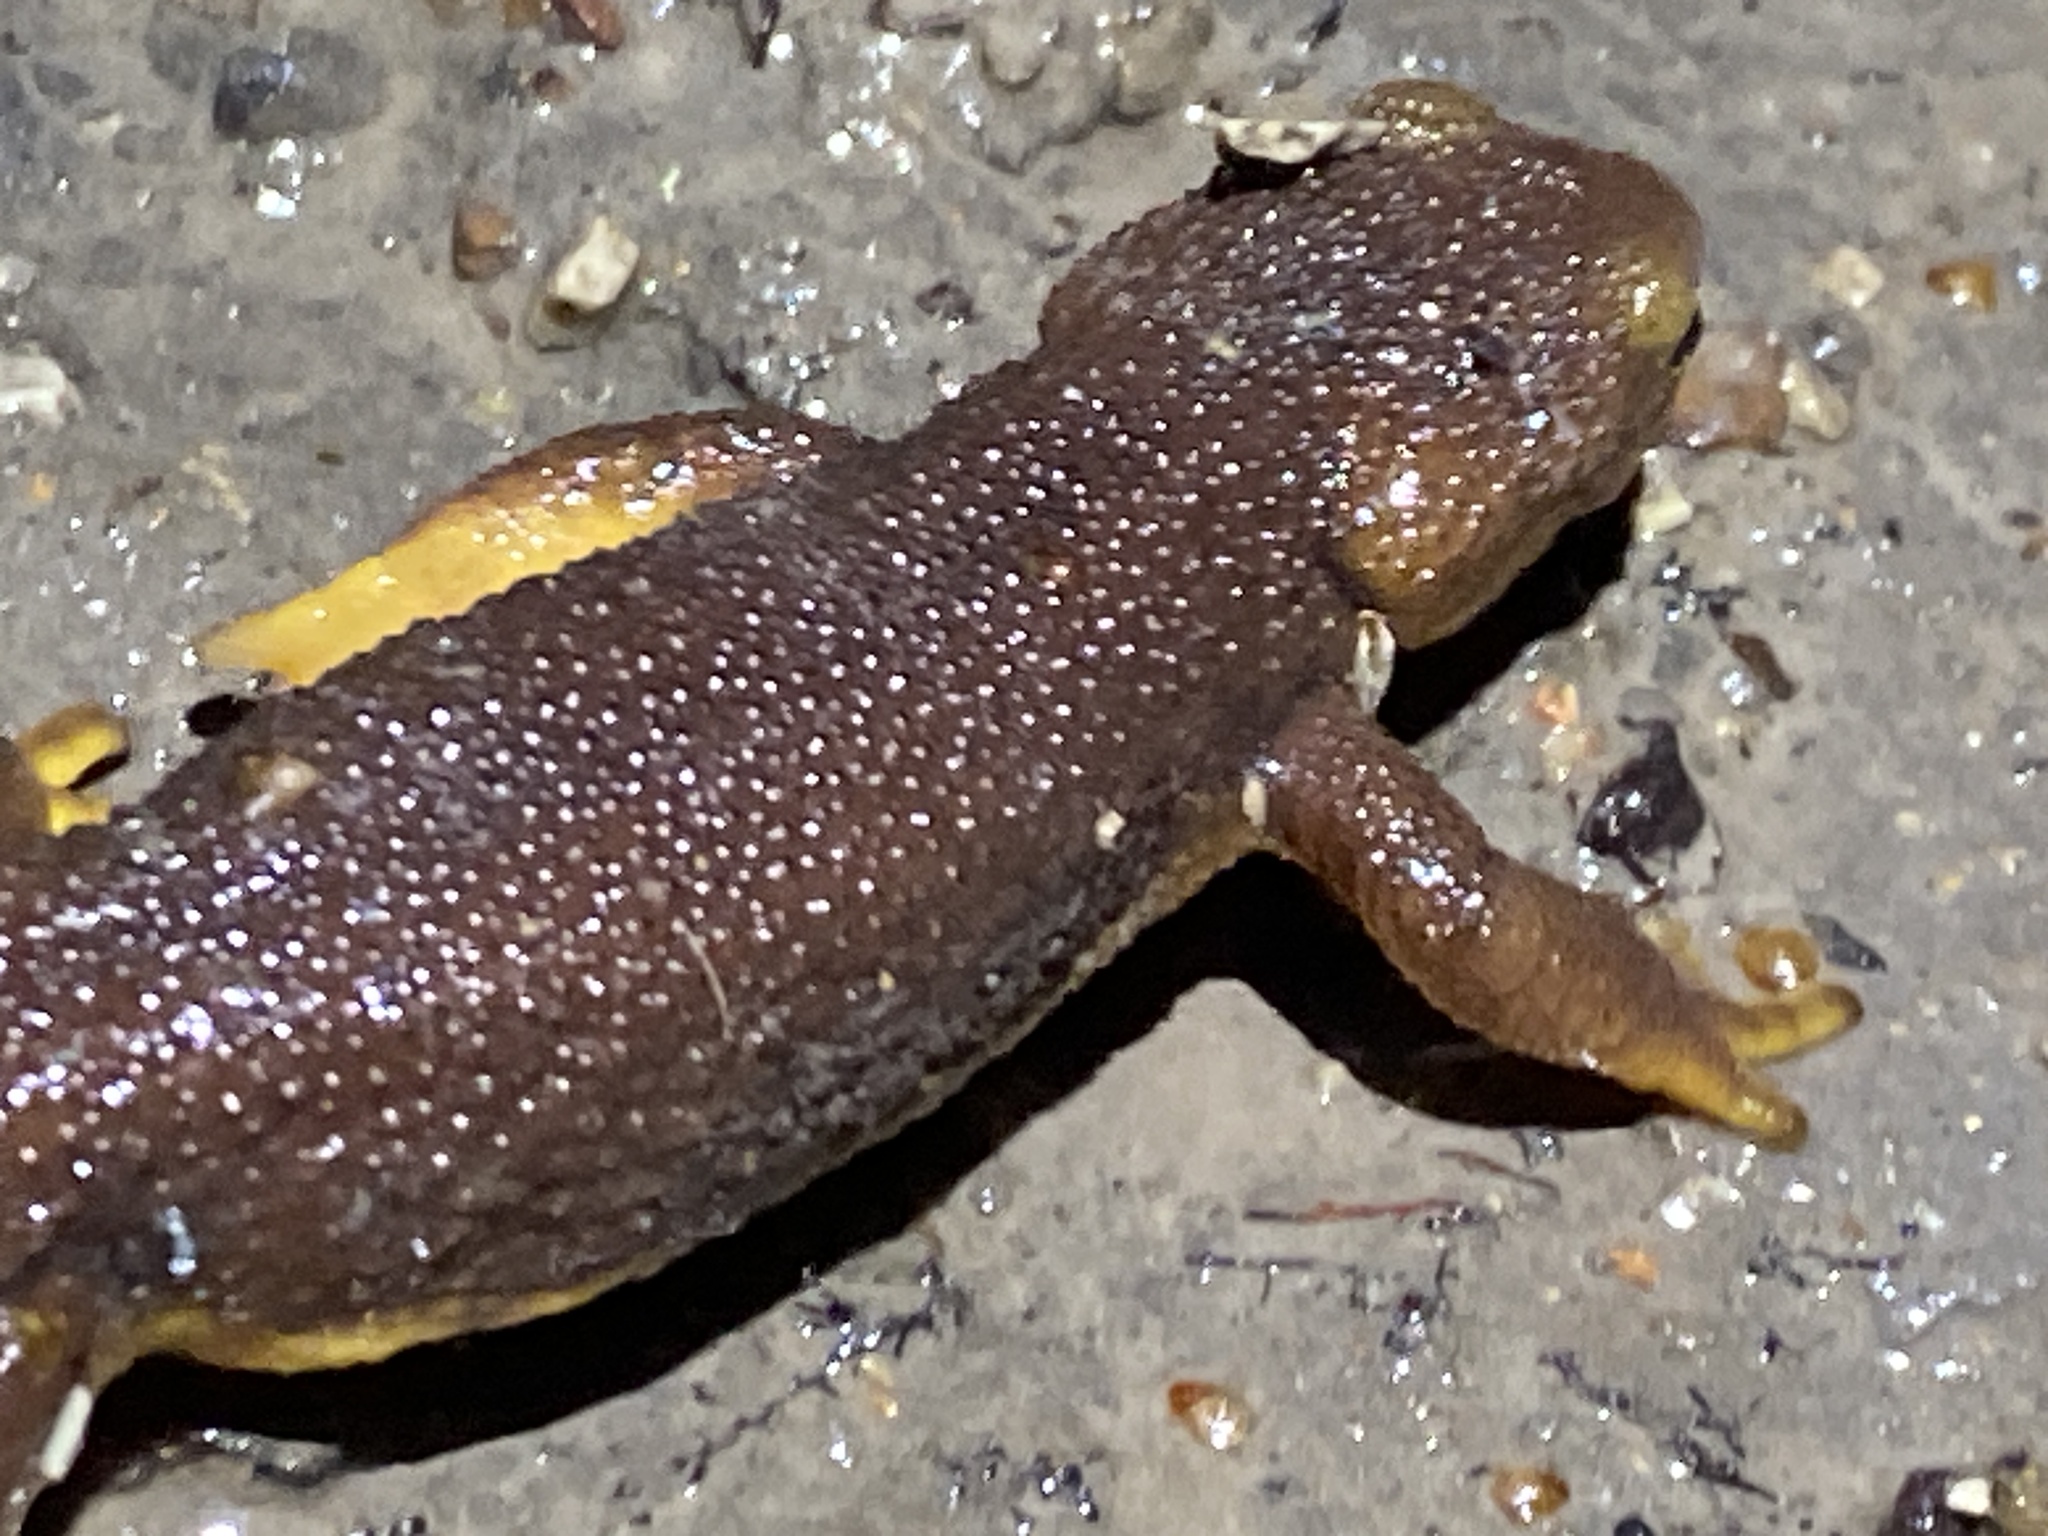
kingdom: Animalia
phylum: Chordata
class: Amphibia
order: Caudata
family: Salamandridae
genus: Taricha
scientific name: Taricha torosa
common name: California newt
